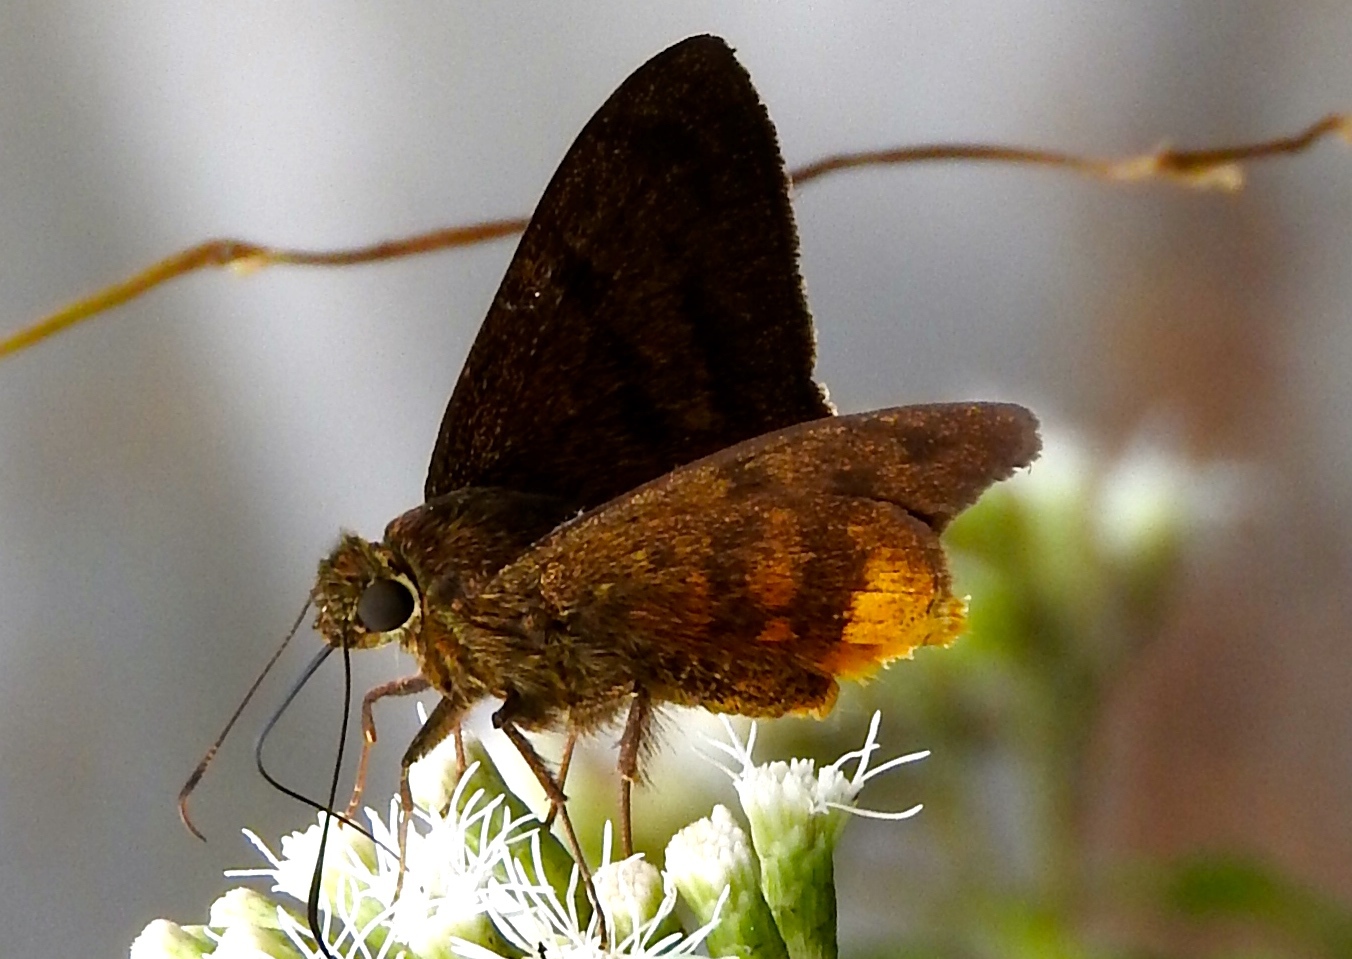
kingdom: Animalia
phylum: Arthropoda
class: Insecta
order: Lepidoptera
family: Hesperiidae
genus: Astraptes
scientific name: Astraptes anaphus
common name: Yellow-tipped flasher
